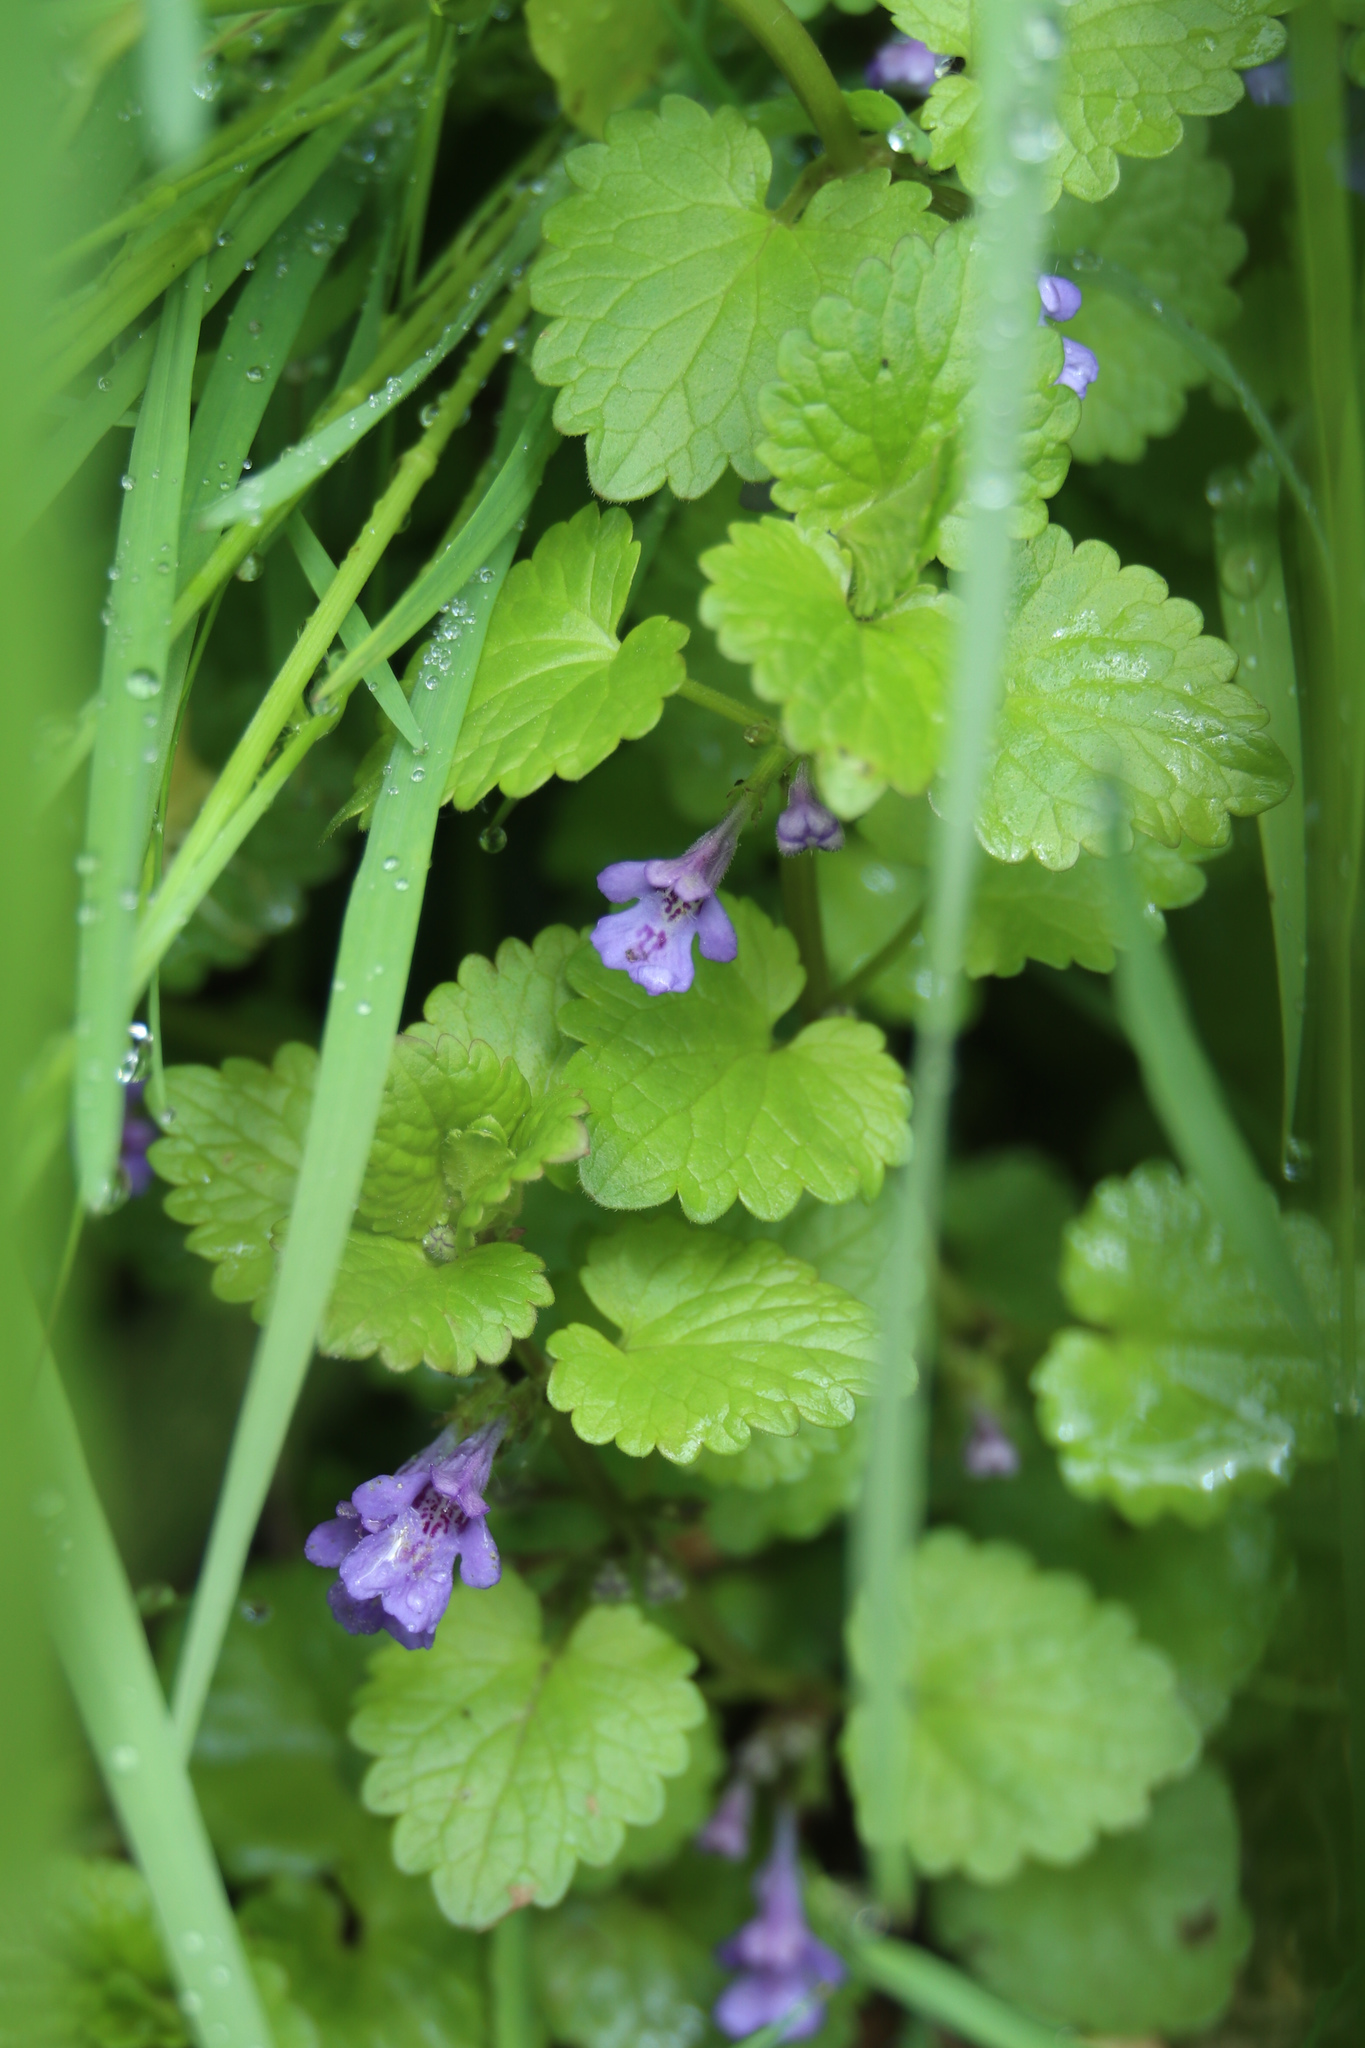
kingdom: Plantae
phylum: Tracheophyta
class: Magnoliopsida
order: Lamiales
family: Lamiaceae
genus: Glechoma
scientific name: Glechoma hederacea
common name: Ground ivy
